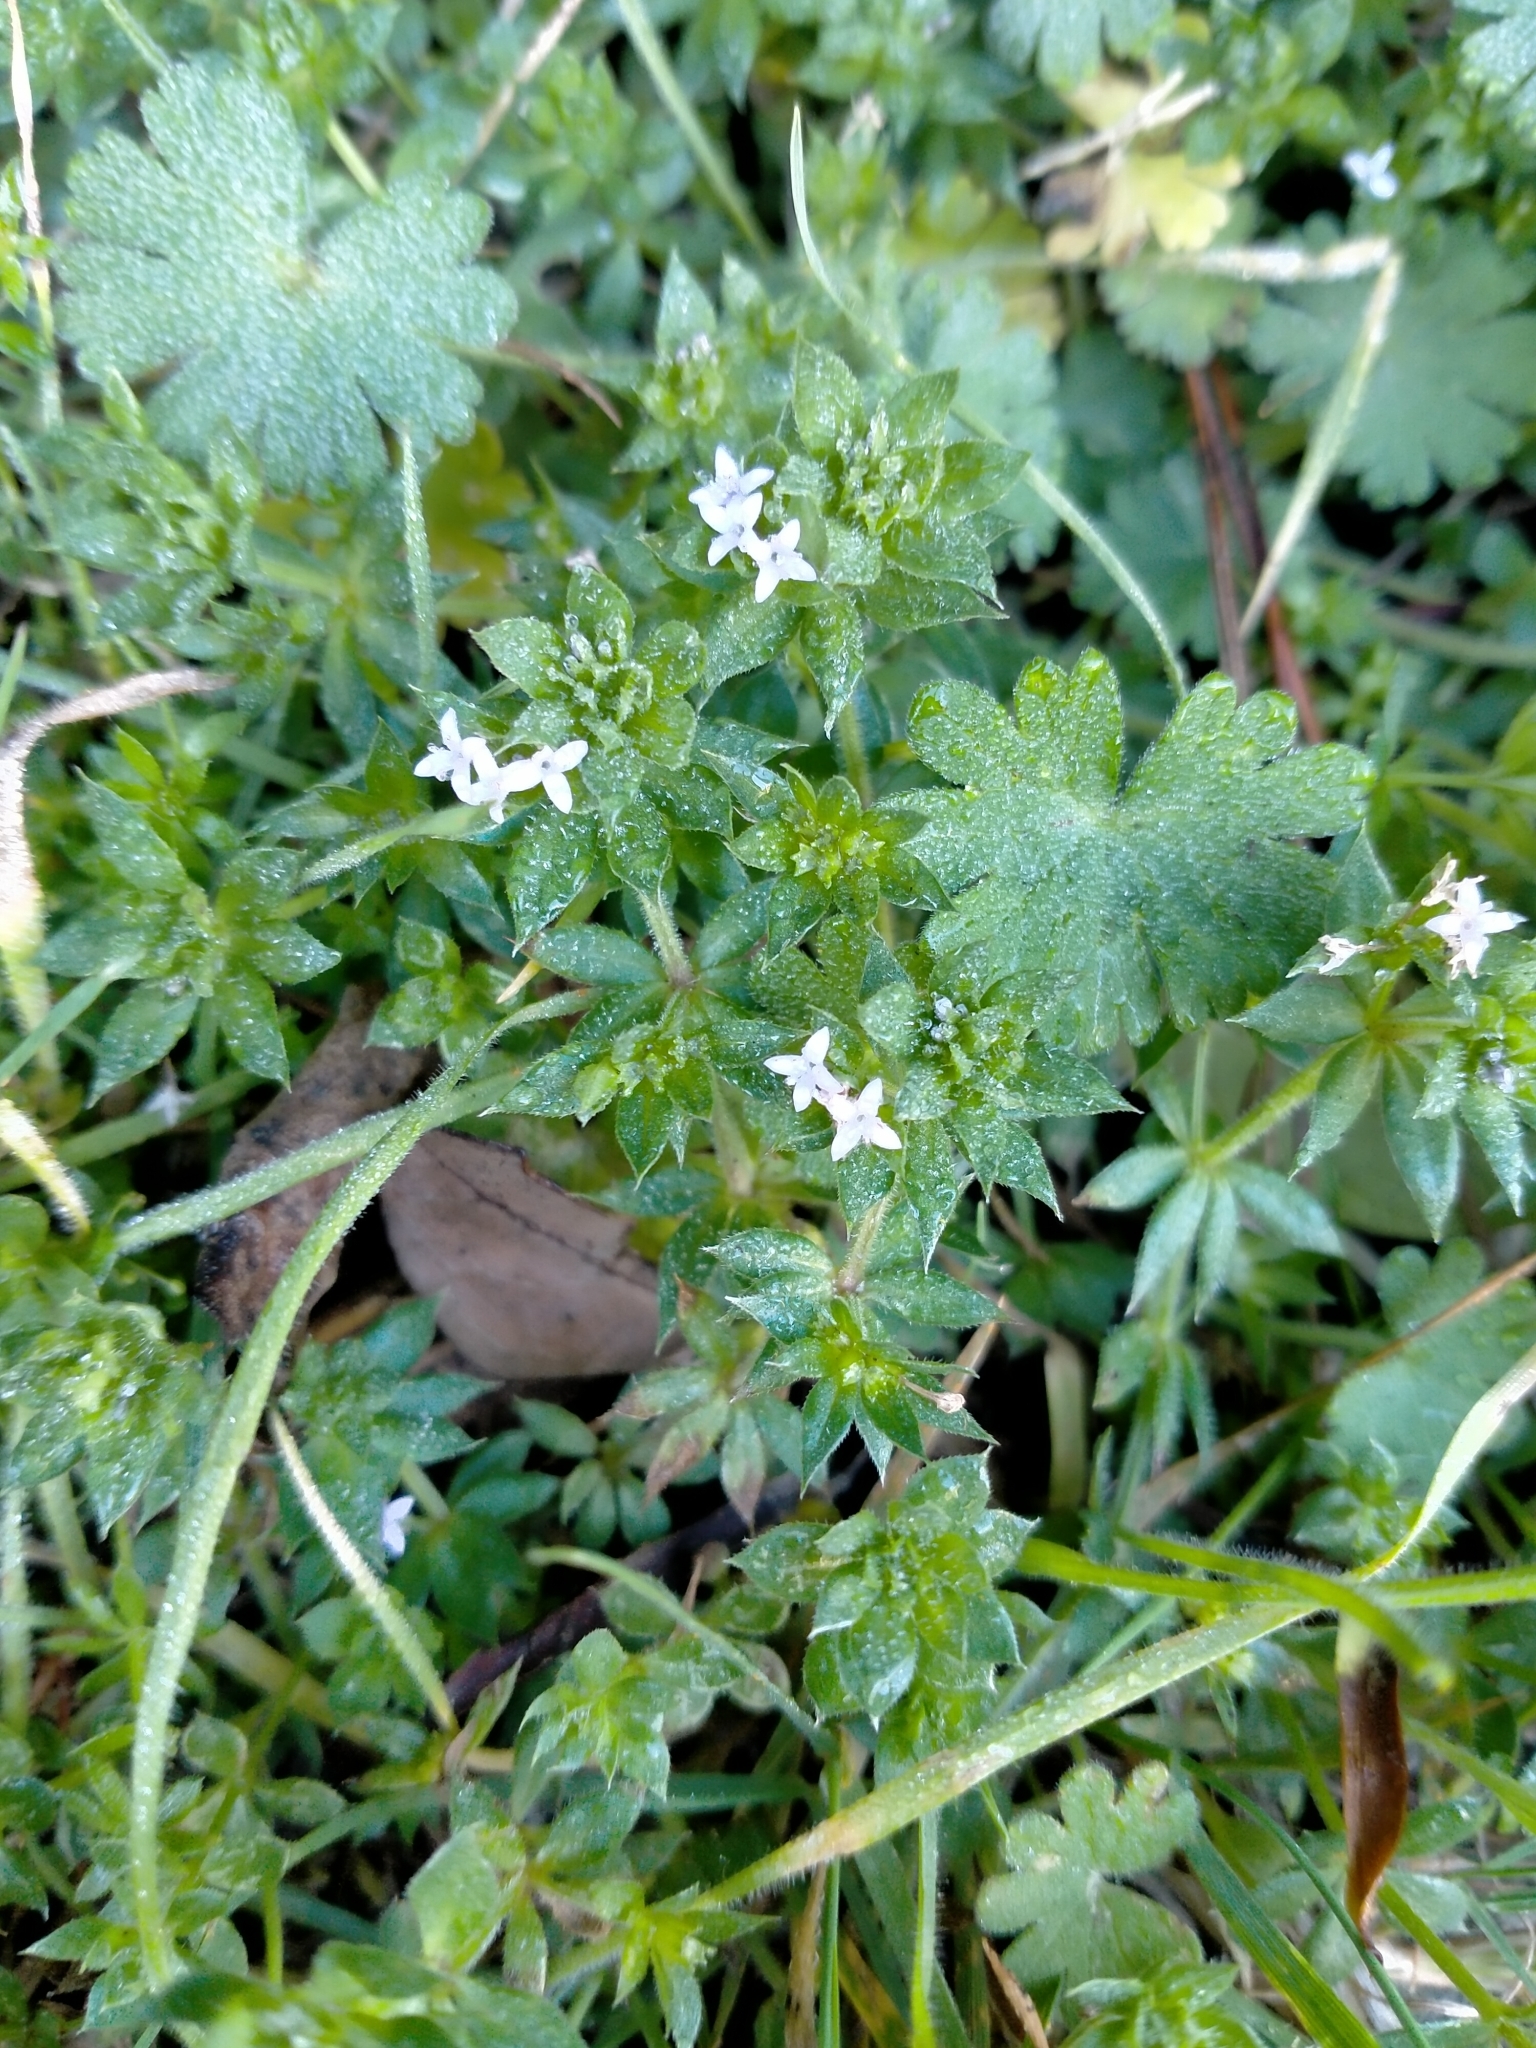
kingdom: Plantae
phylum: Tracheophyta
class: Magnoliopsida
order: Gentianales
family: Rubiaceae
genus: Sherardia
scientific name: Sherardia arvensis
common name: Field madder
